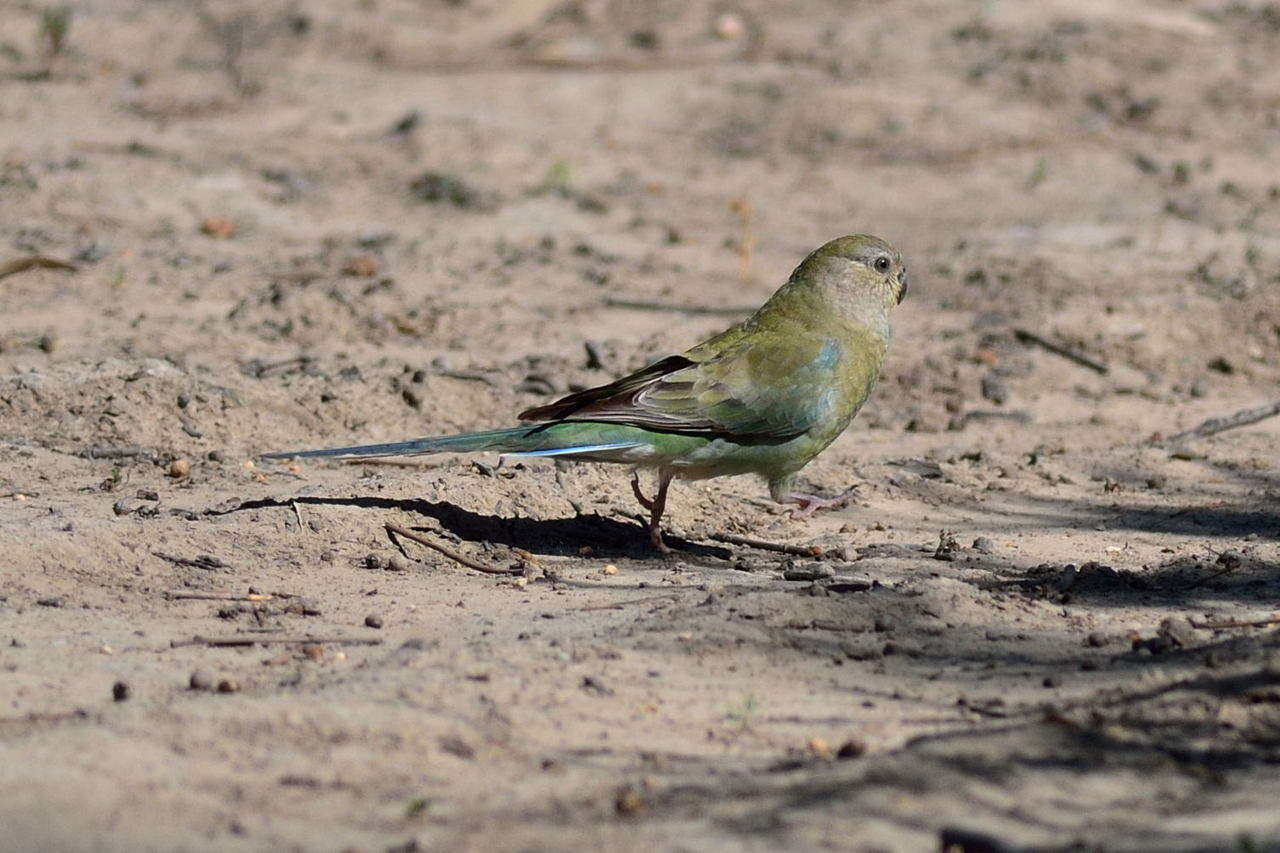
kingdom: Animalia
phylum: Chordata
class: Aves
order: Psittaciformes
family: Psittacidae
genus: Psephotus
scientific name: Psephotus haematonotus
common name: Red-rumped parrot
